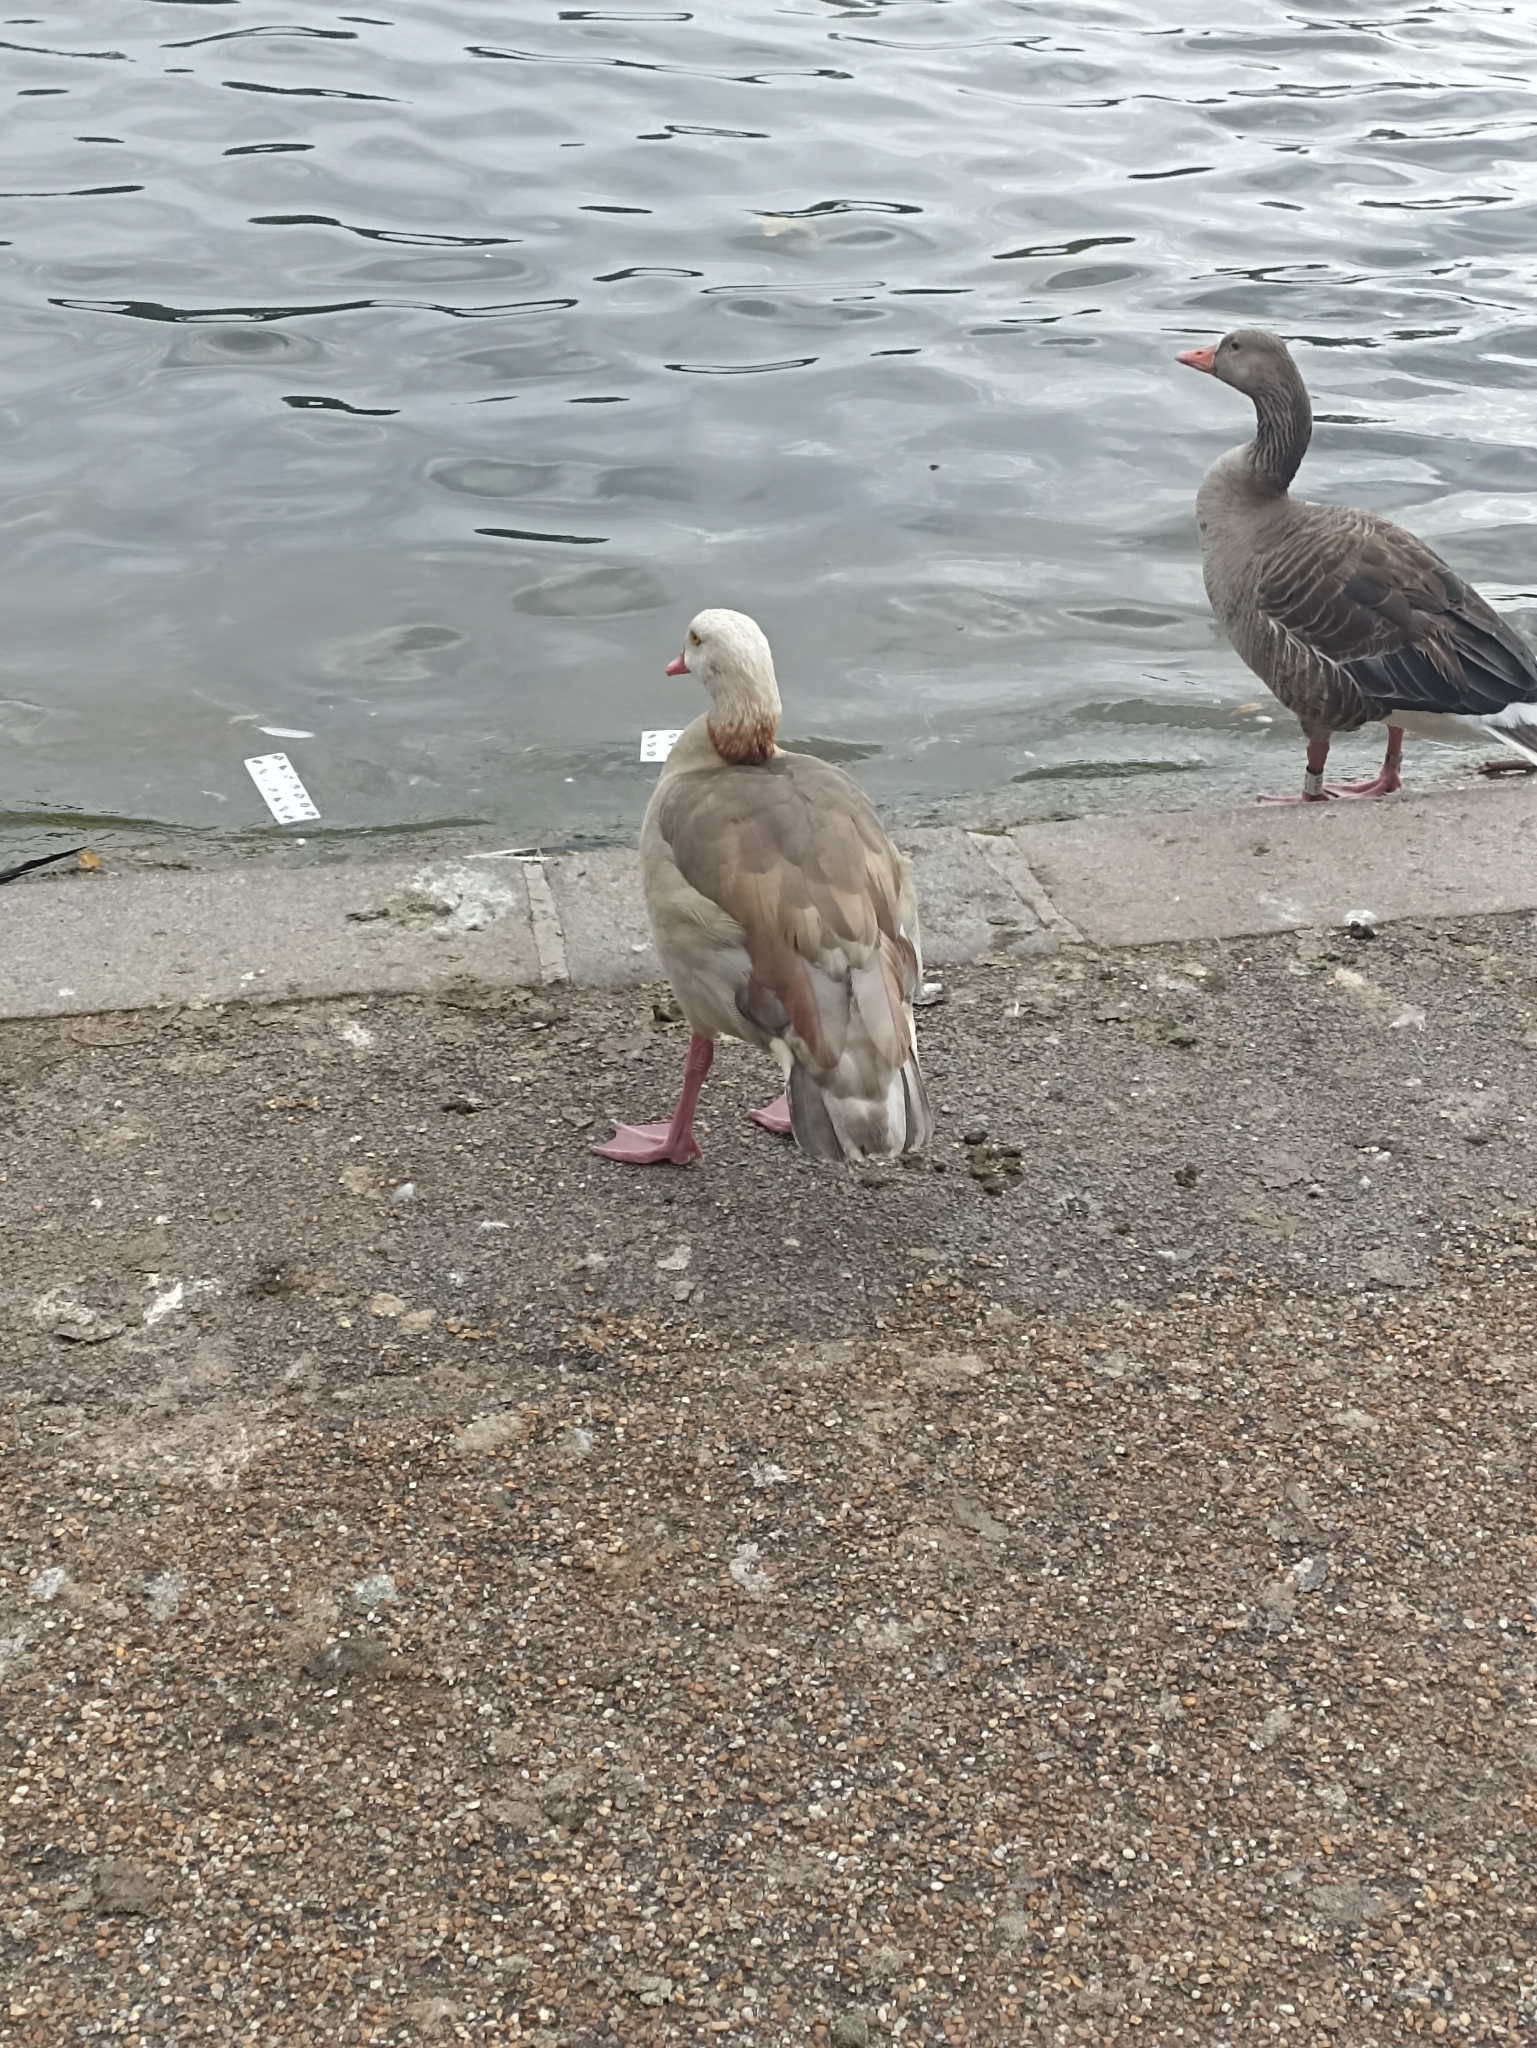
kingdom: Animalia
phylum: Chordata
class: Aves
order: Anseriformes
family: Anatidae
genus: Alopochen
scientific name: Alopochen aegyptiaca
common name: Egyptian goose
